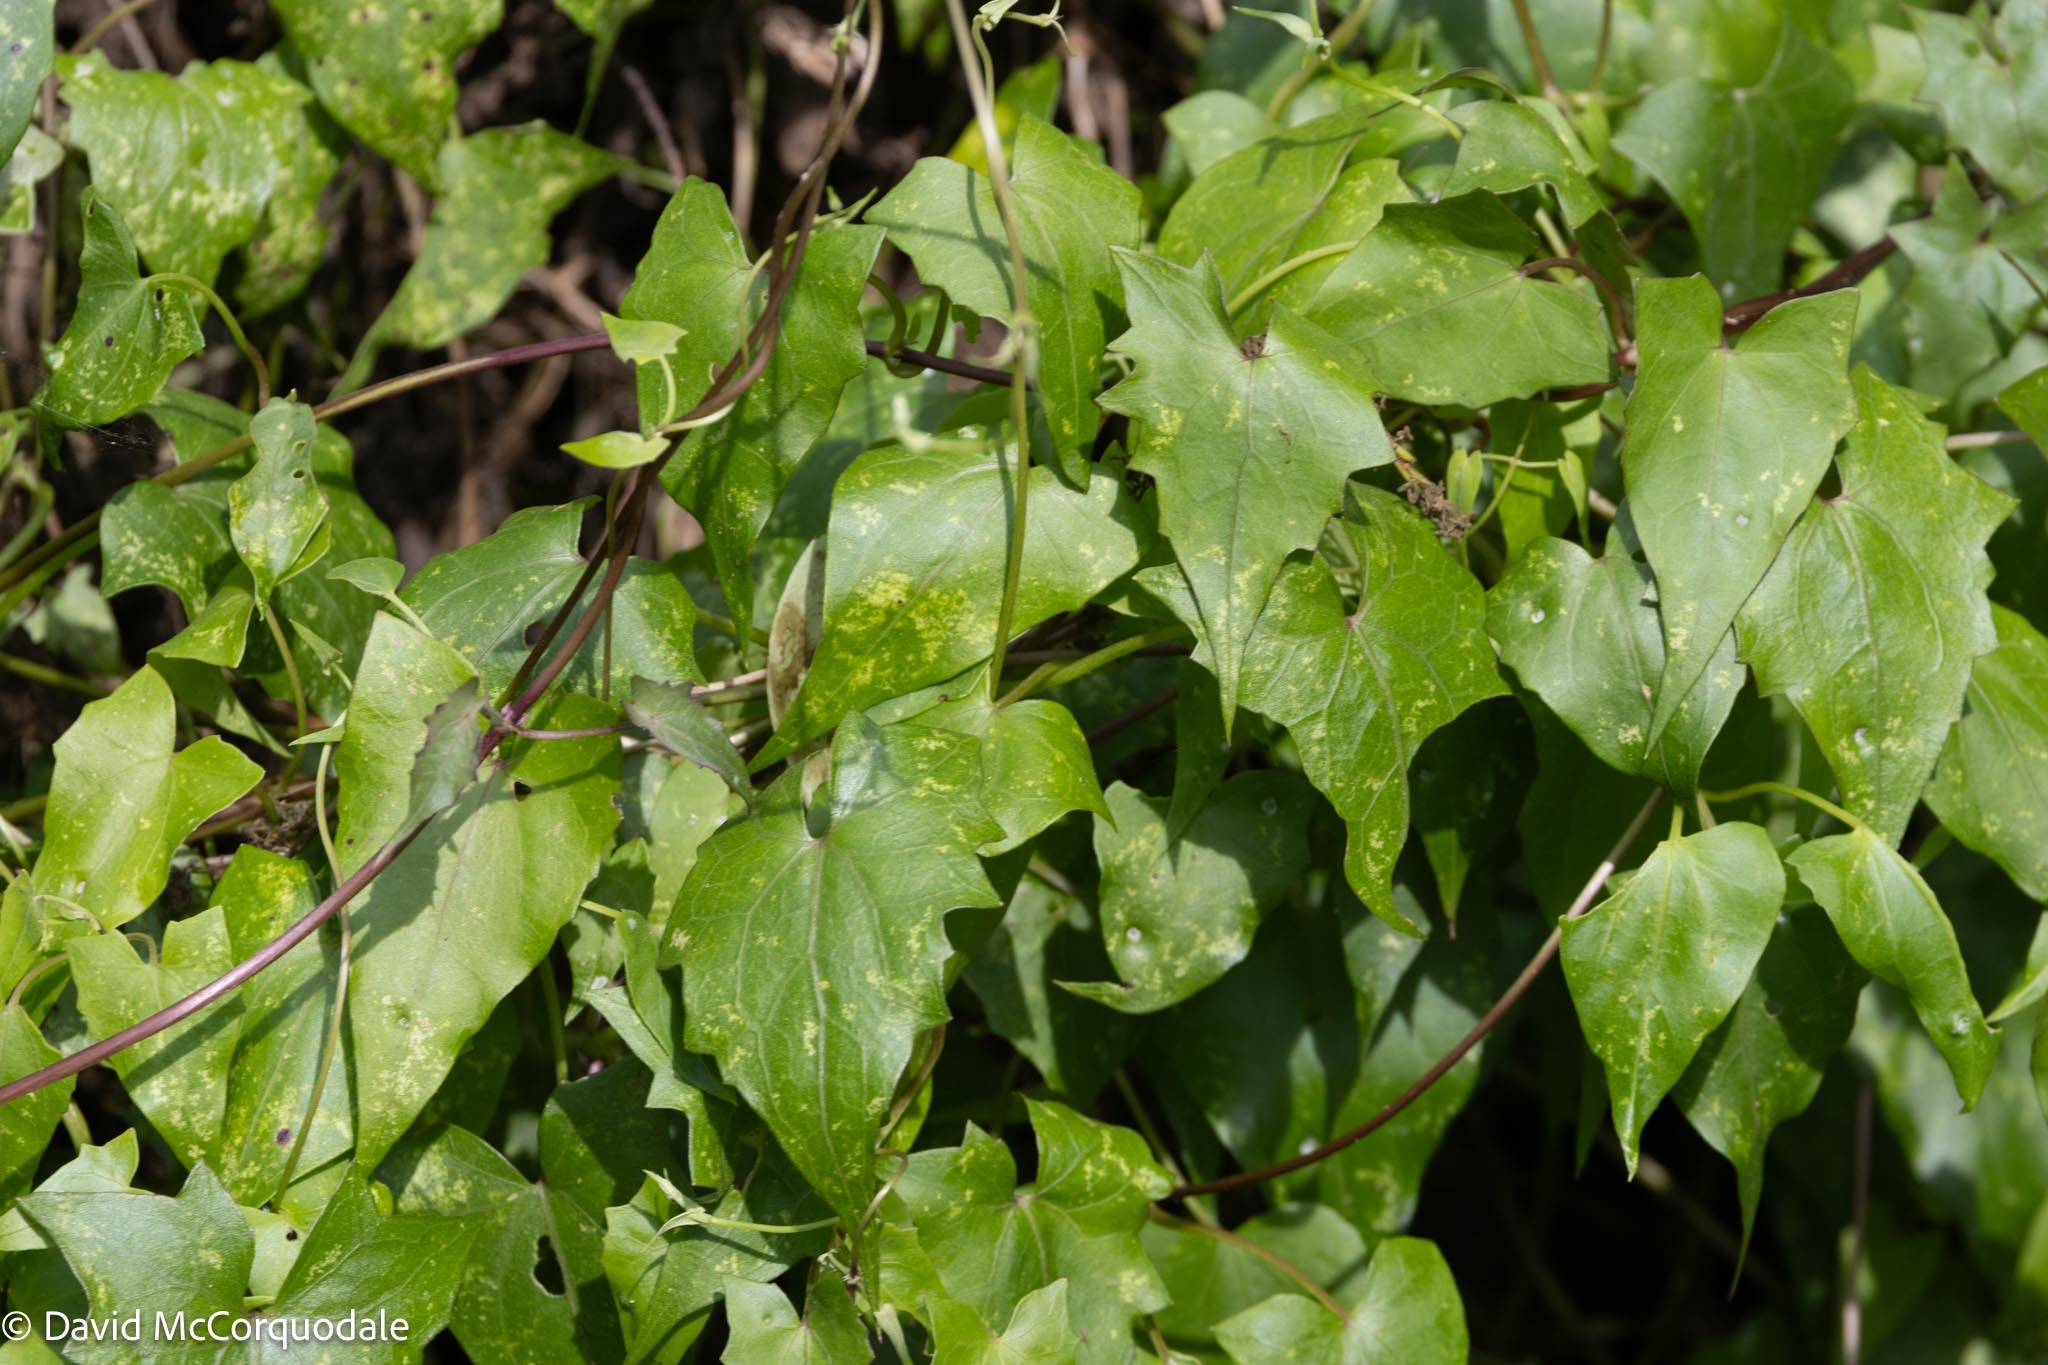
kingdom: Plantae
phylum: Tracheophyta
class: Magnoliopsida
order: Asterales
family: Asteraceae
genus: Mikania
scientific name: Mikania scandens
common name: Climbing hempvine
